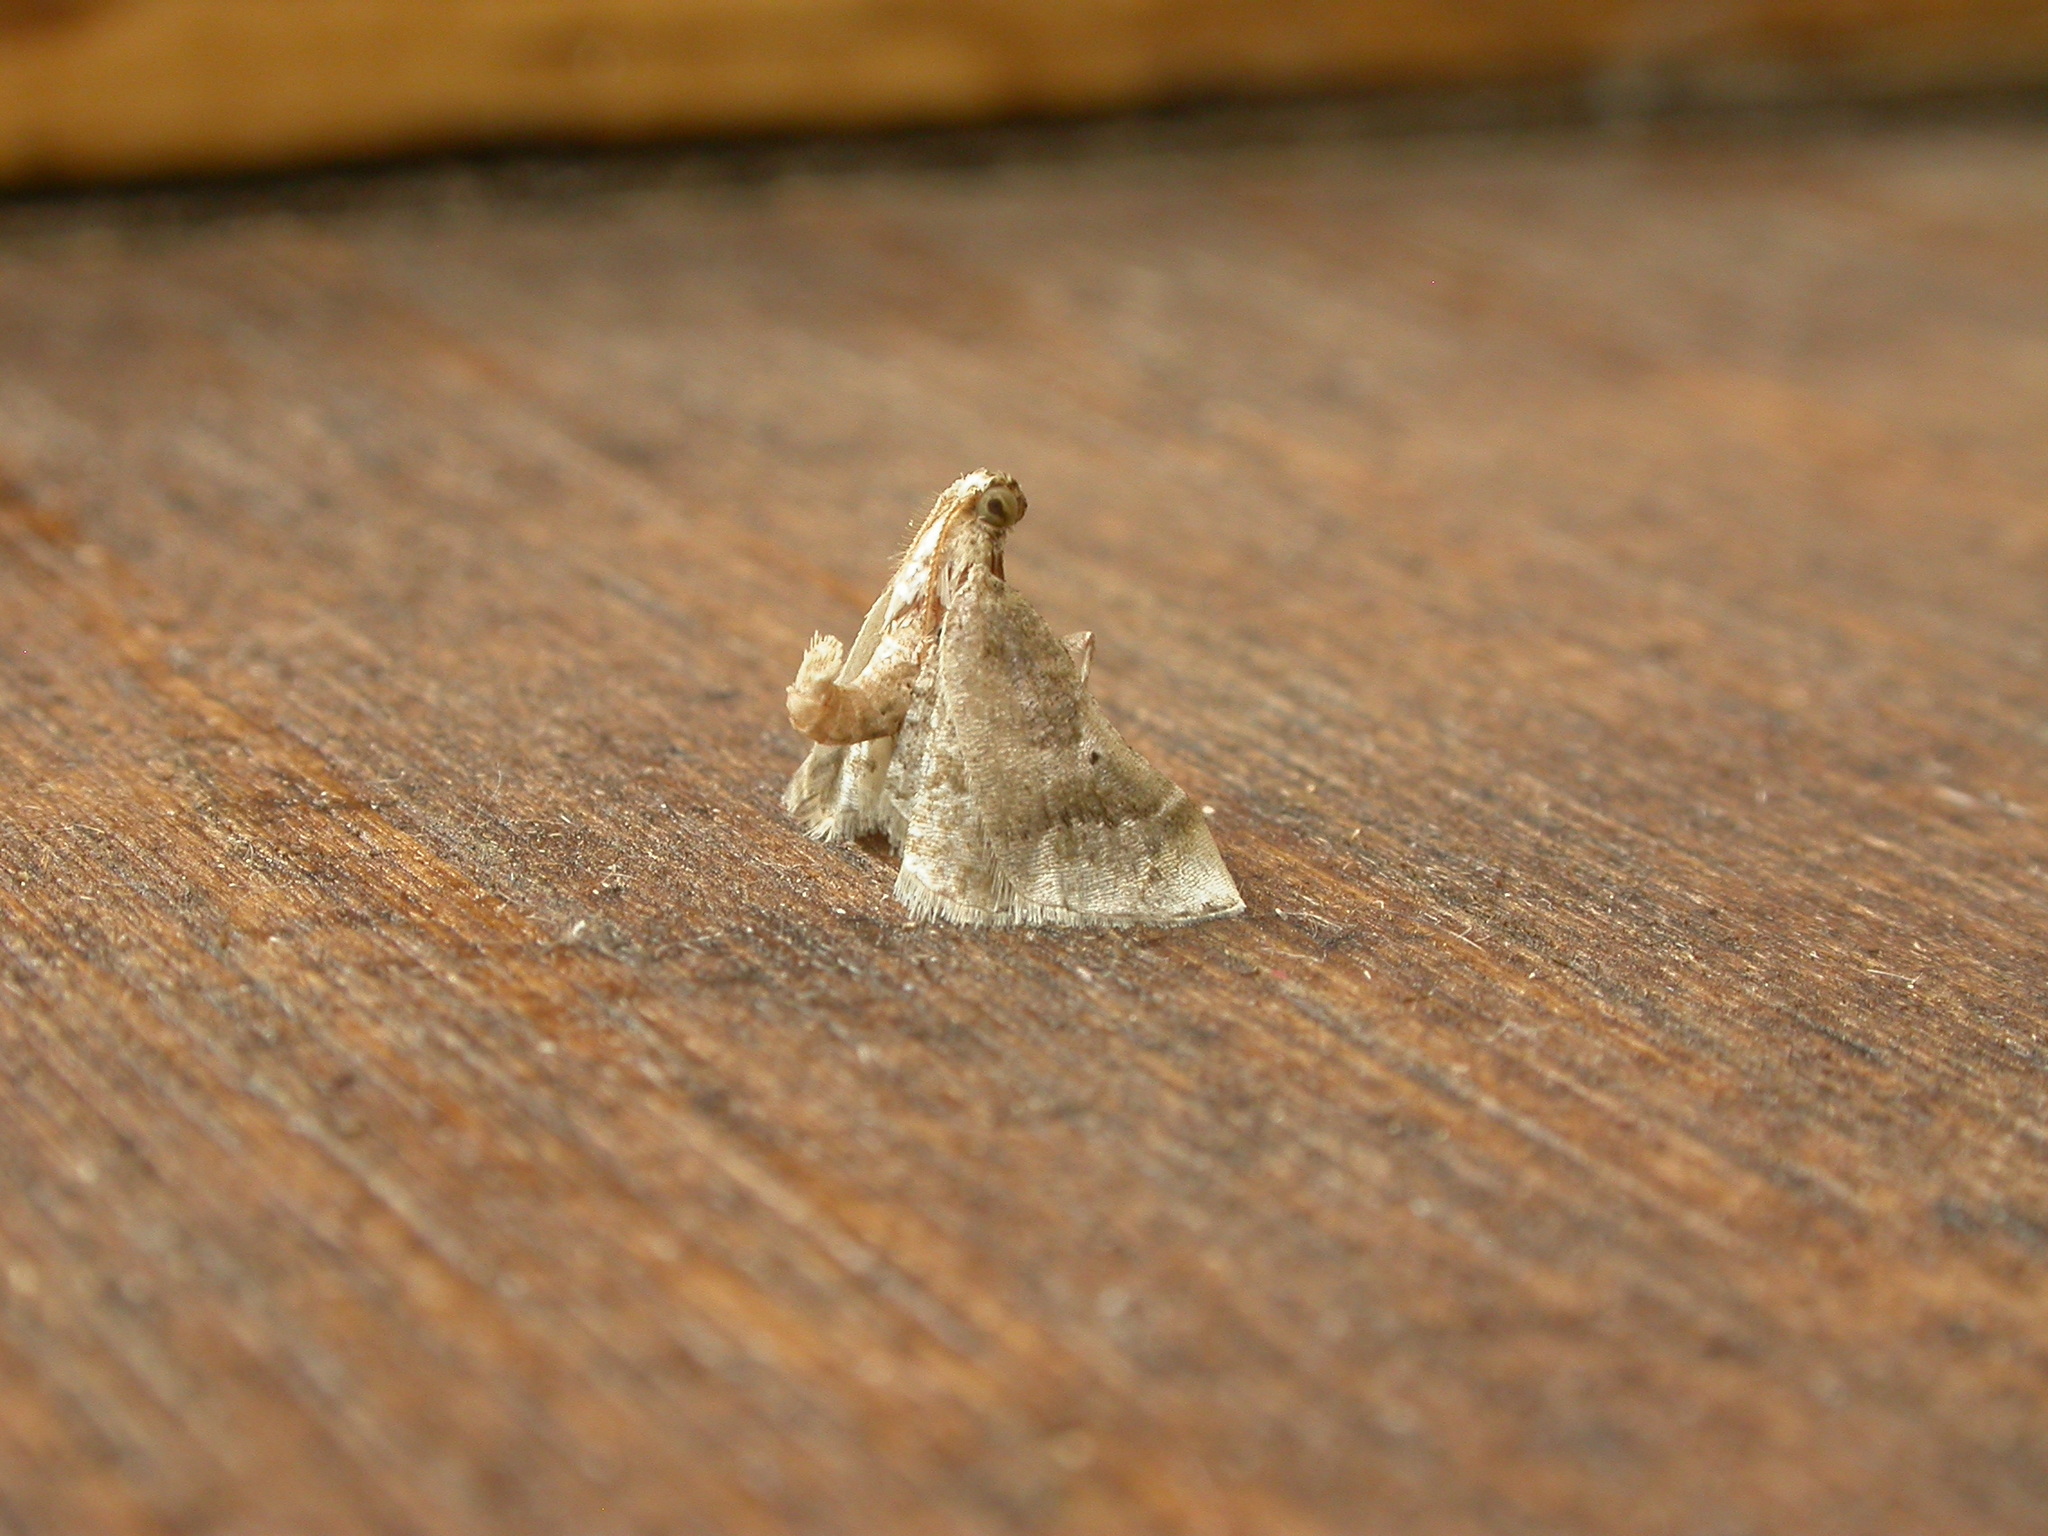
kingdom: Animalia
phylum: Arthropoda
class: Insecta
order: Lepidoptera
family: Pyralidae
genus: Scenedra
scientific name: Scenedra decoratalis
